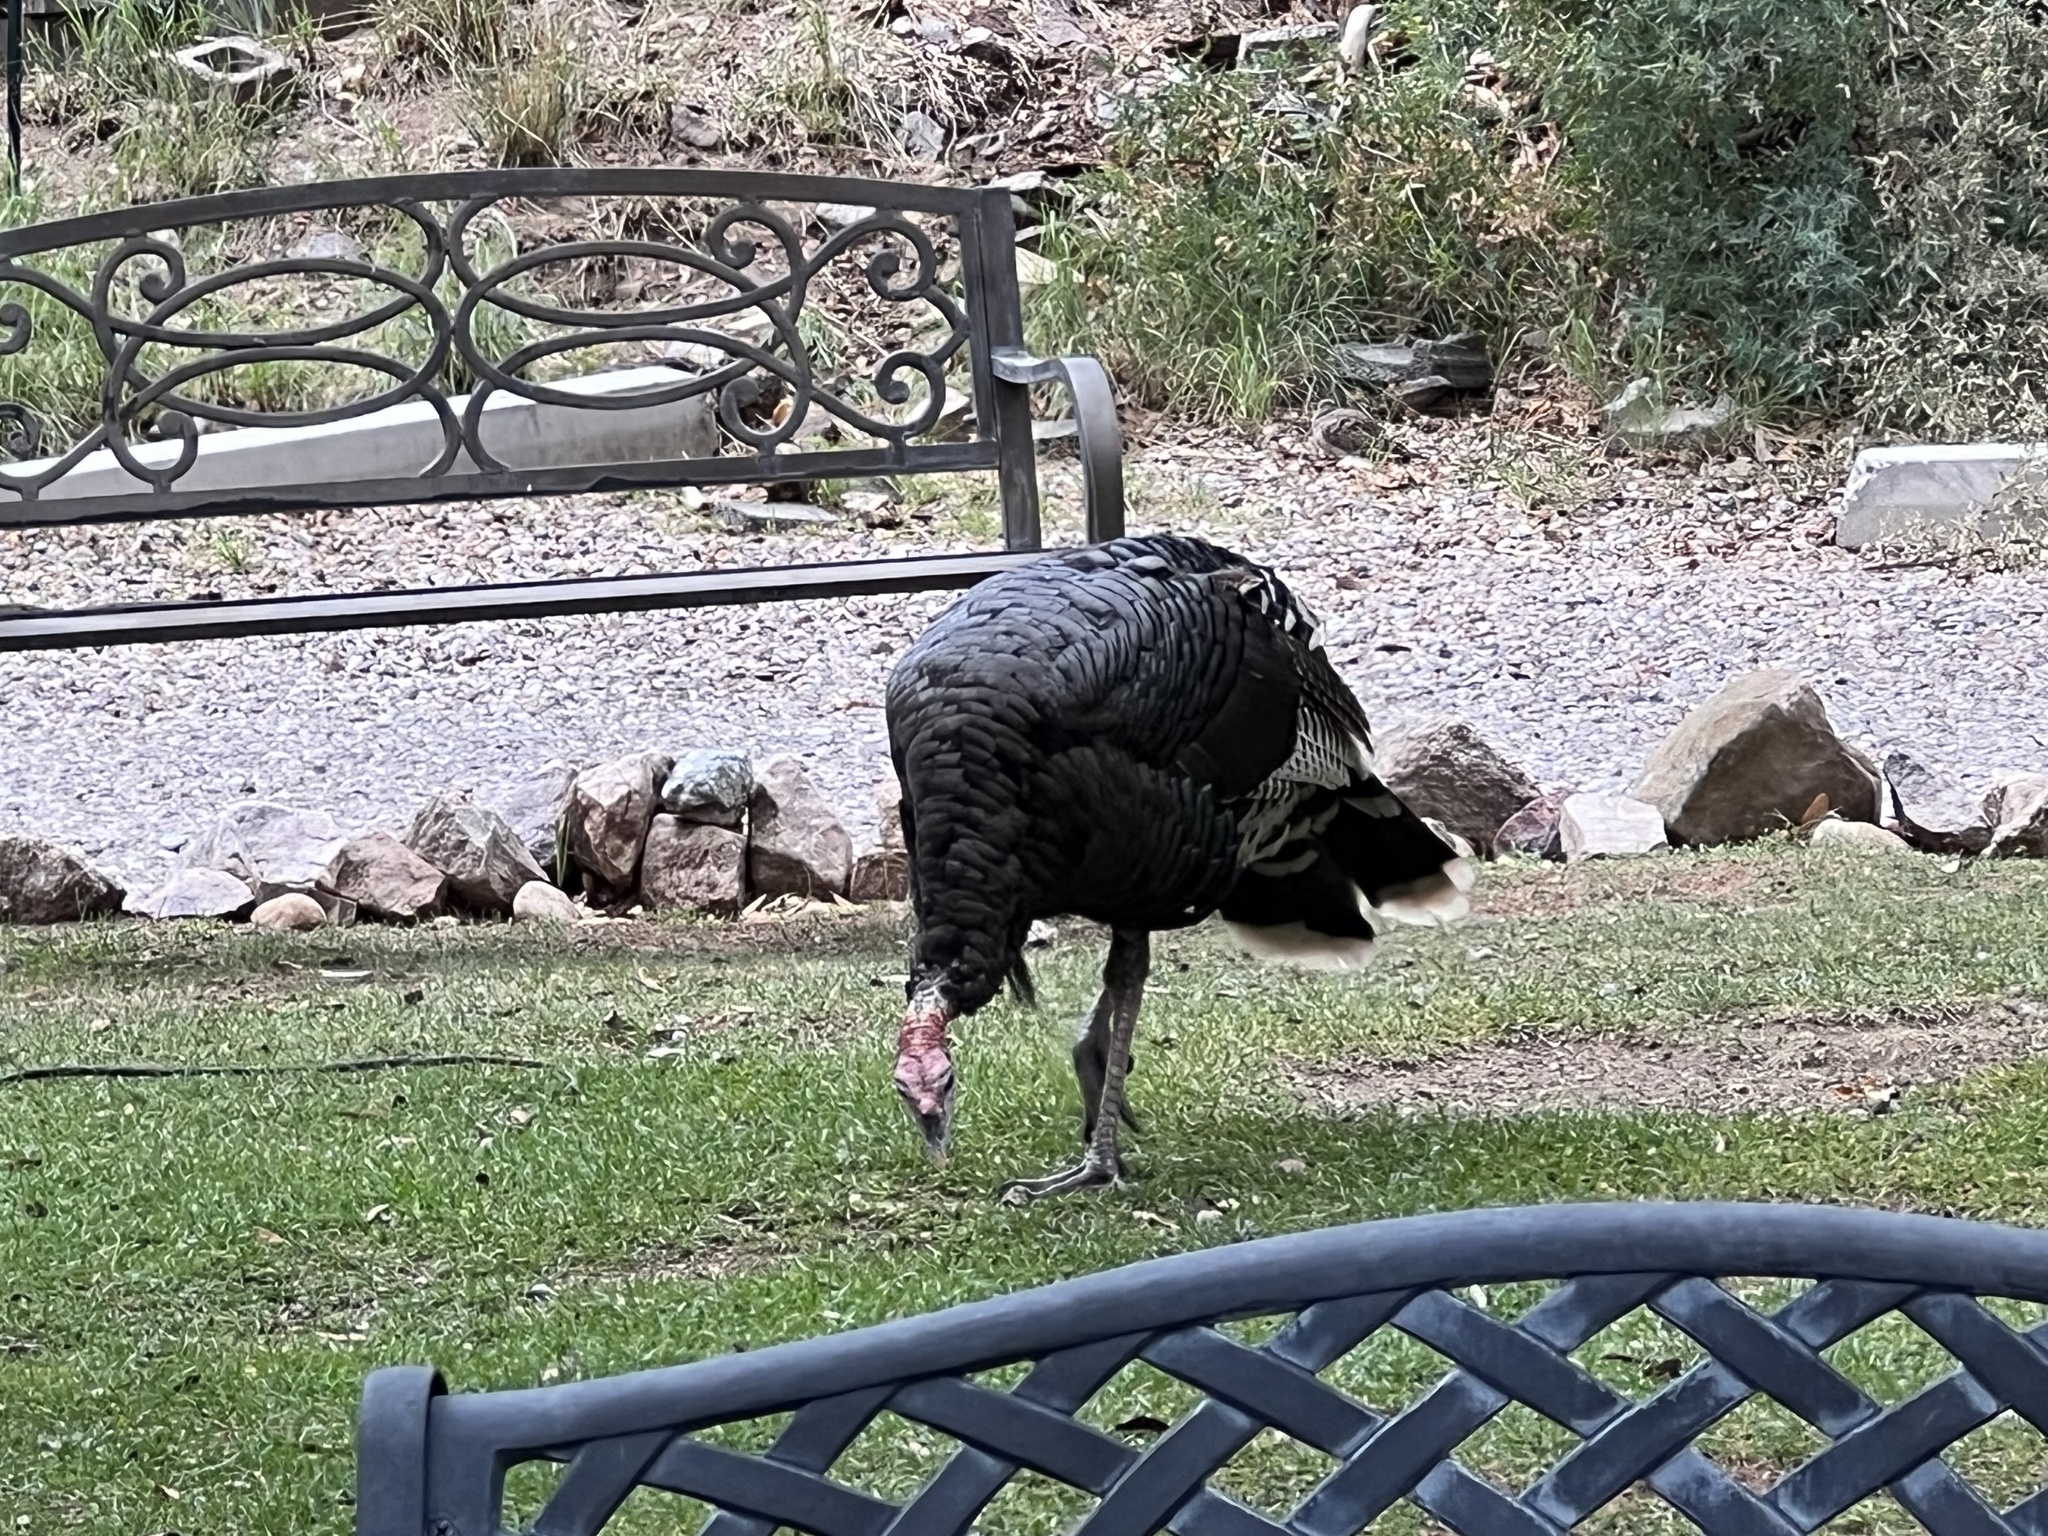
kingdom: Animalia
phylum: Chordata
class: Aves
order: Galliformes
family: Phasianidae
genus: Meleagris
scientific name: Meleagris gallopavo
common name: Wild turkey
